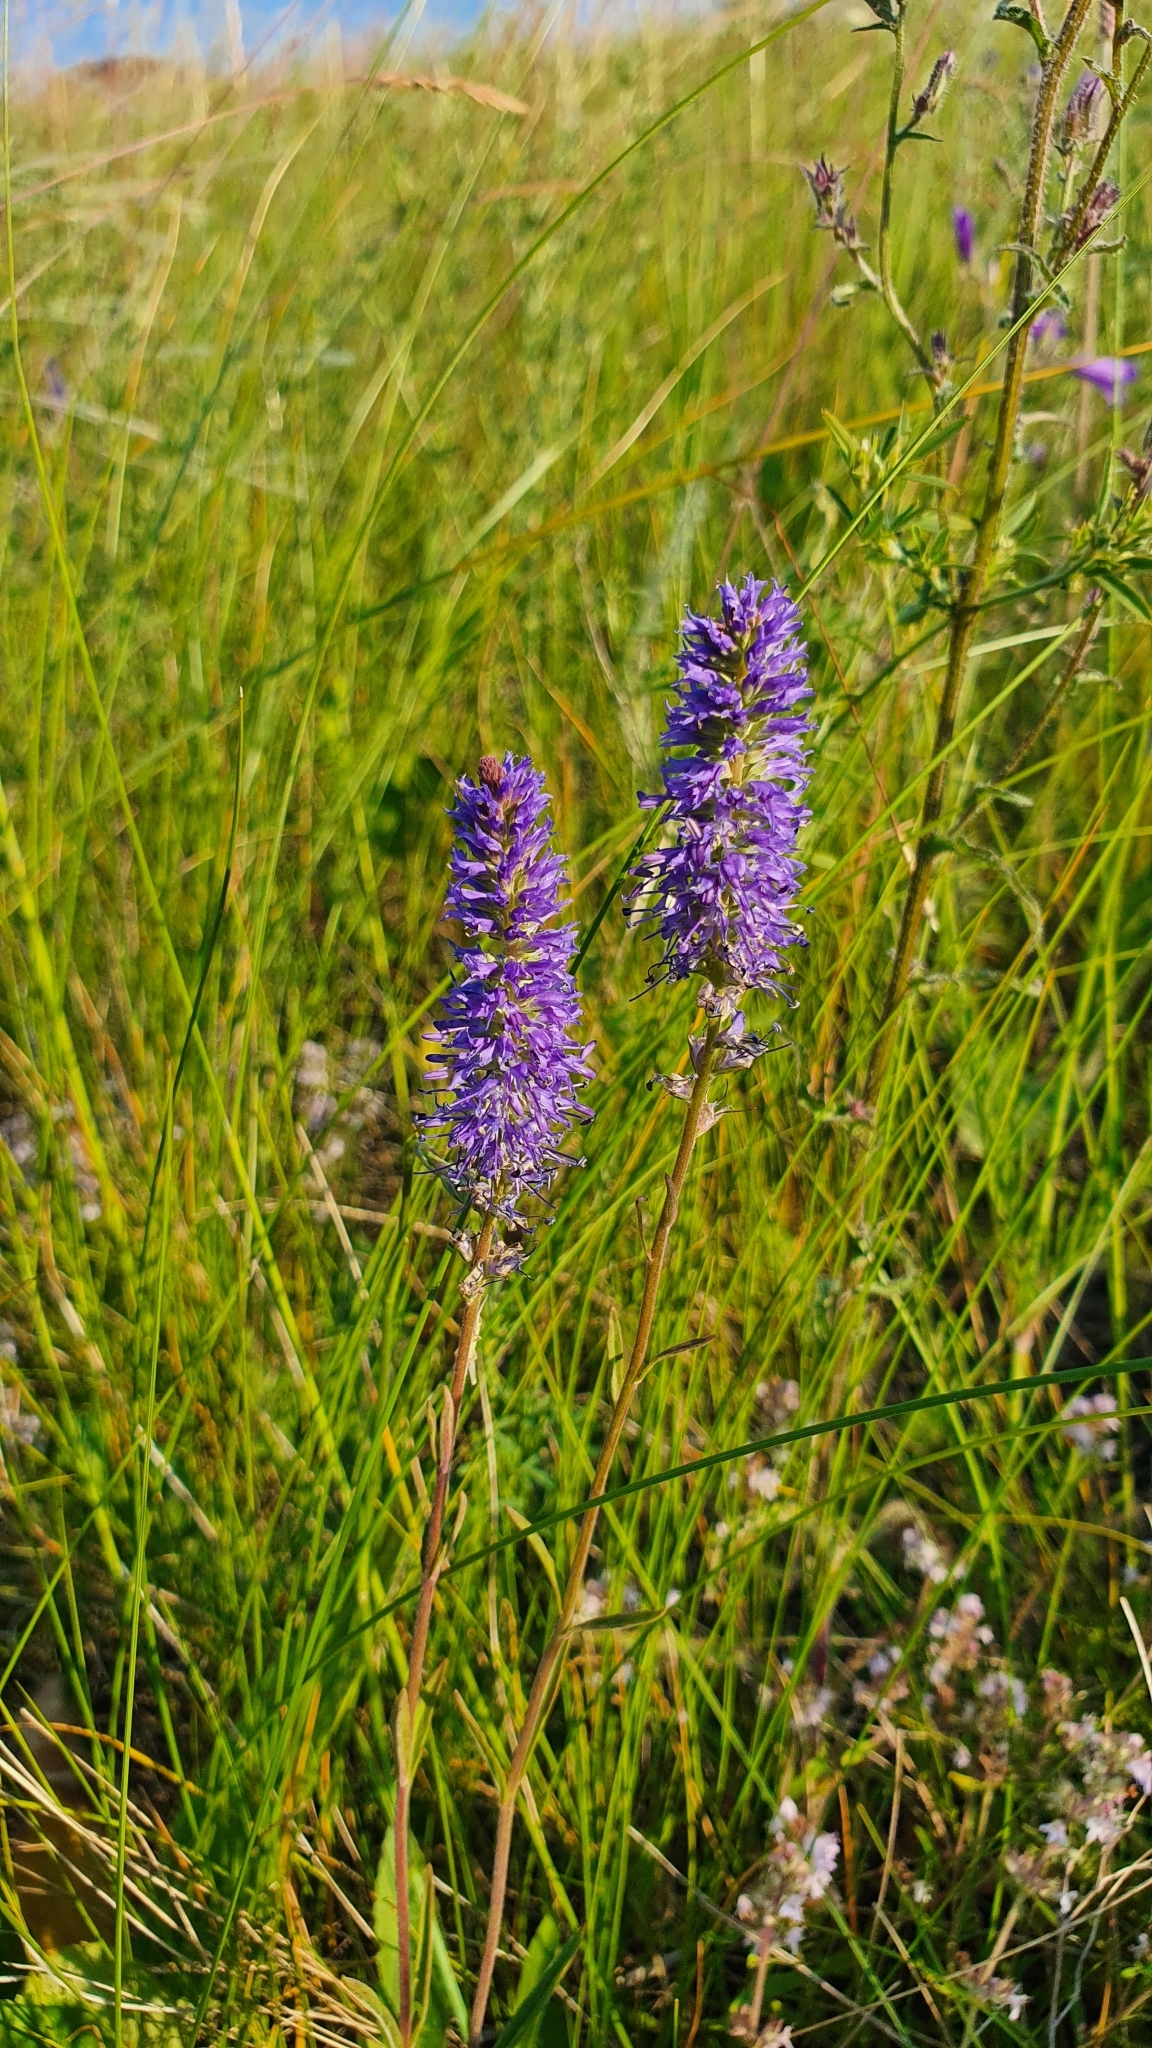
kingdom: Plantae
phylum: Tracheophyta
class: Magnoliopsida
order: Lamiales
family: Plantaginaceae
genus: Veronica
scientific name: Veronica barrelieri
